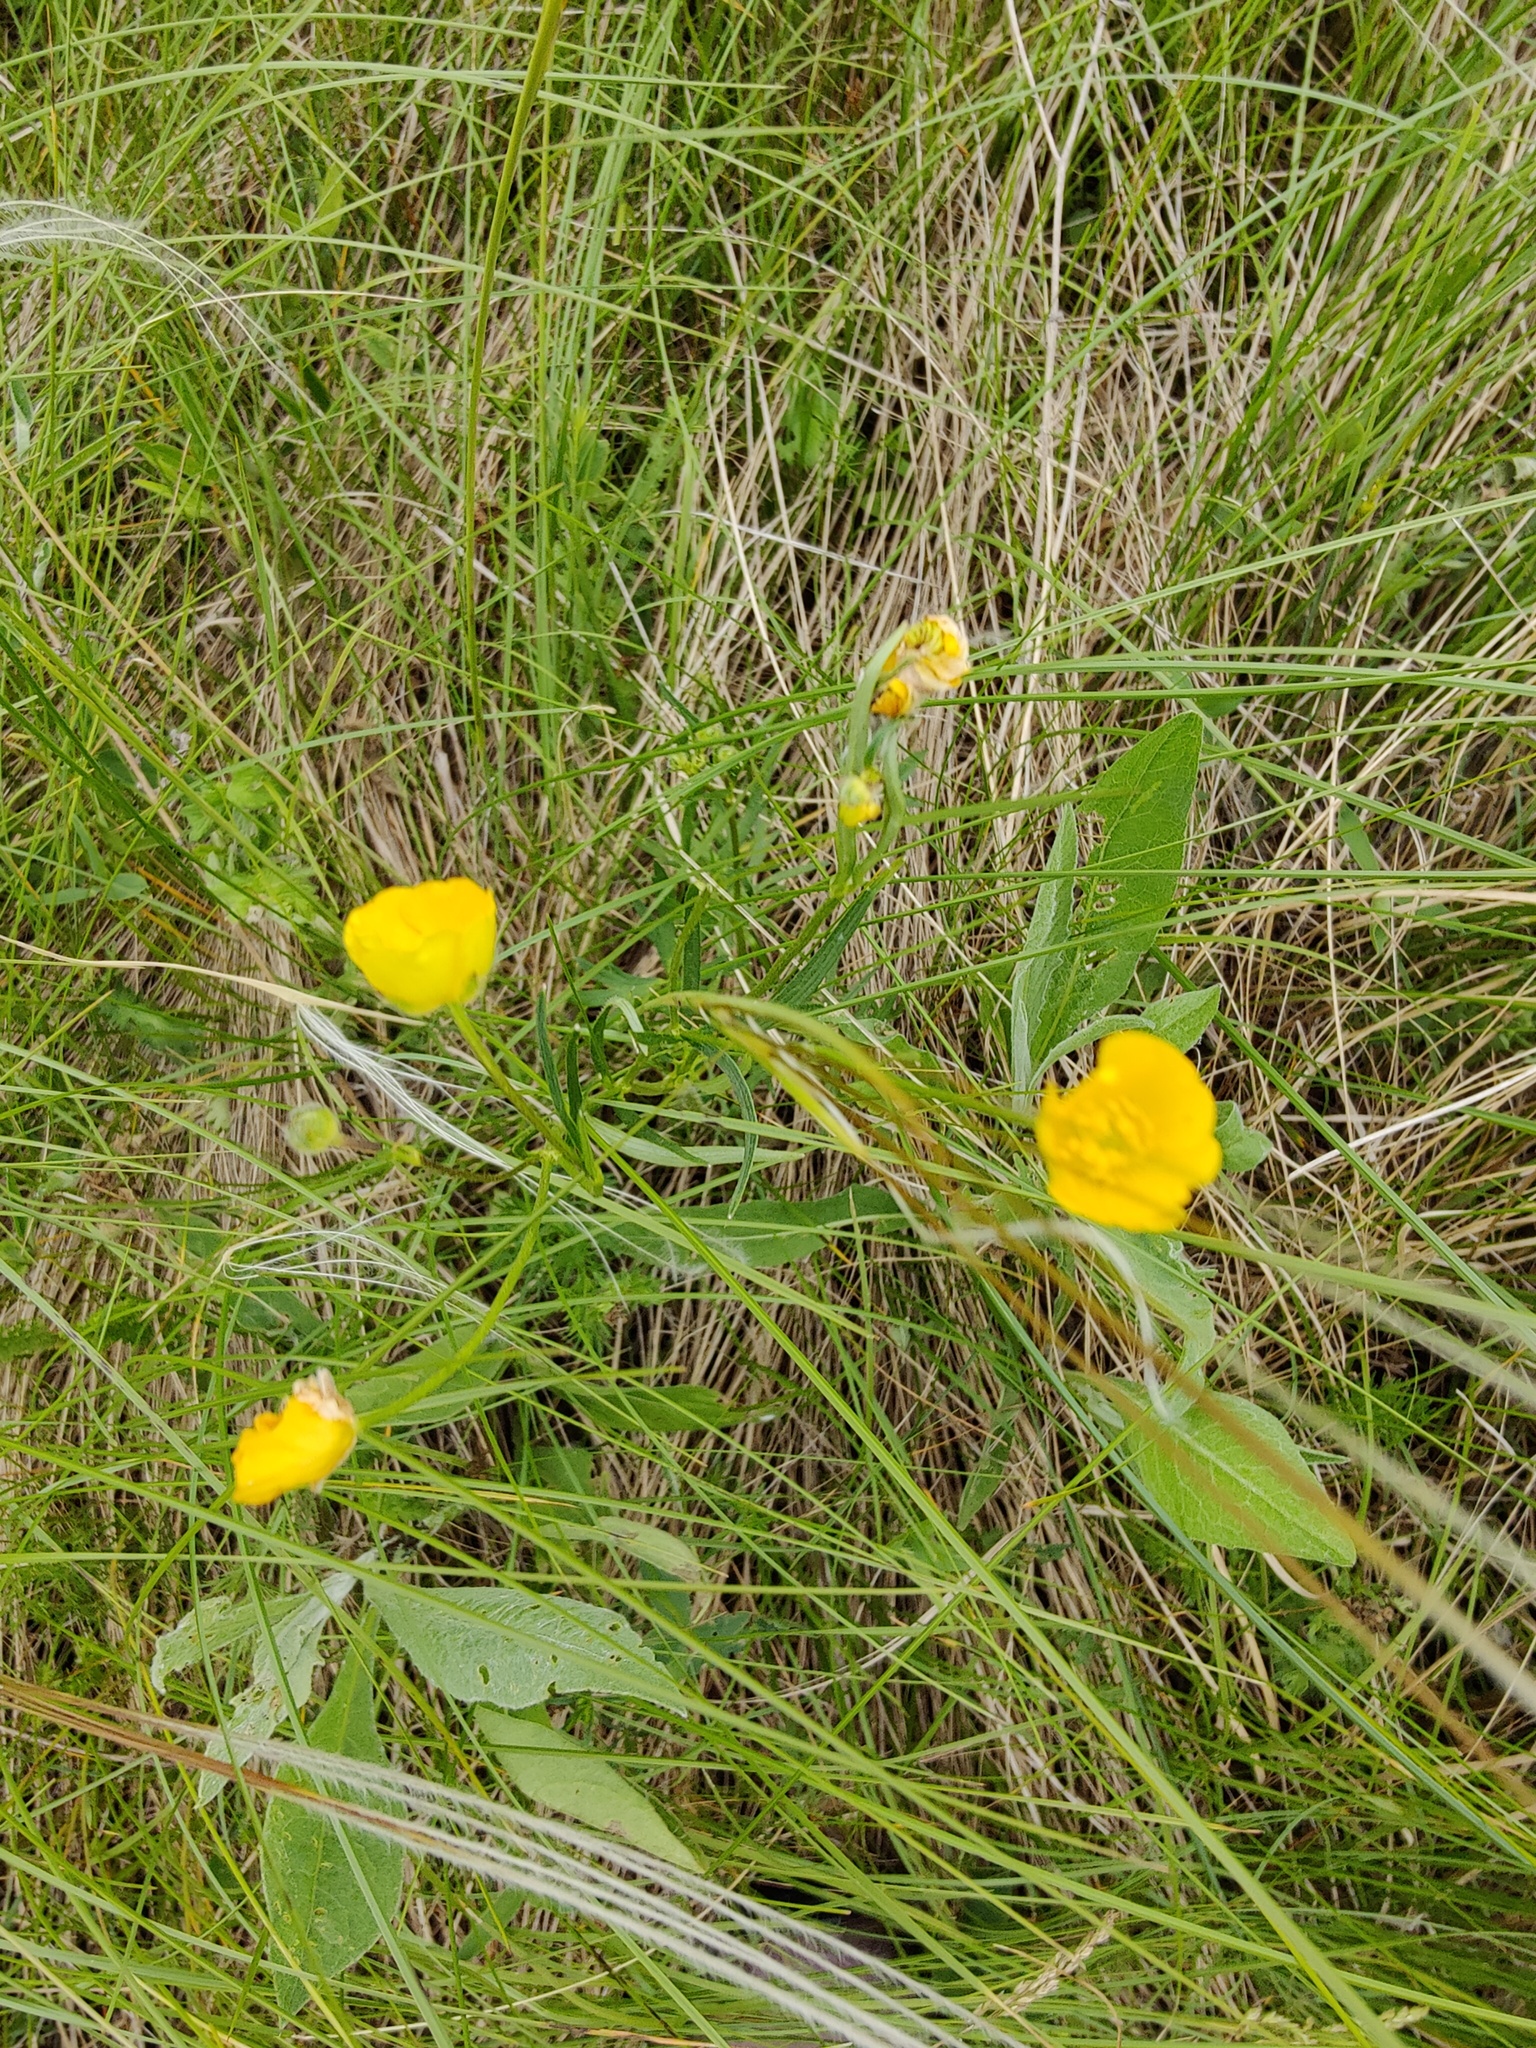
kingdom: Plantae
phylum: Tracheophyta
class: Magnoliopsida
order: Ranunculales
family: Ranunculaceae
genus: Ranunculus
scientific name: Ranunculus polyanthemos
